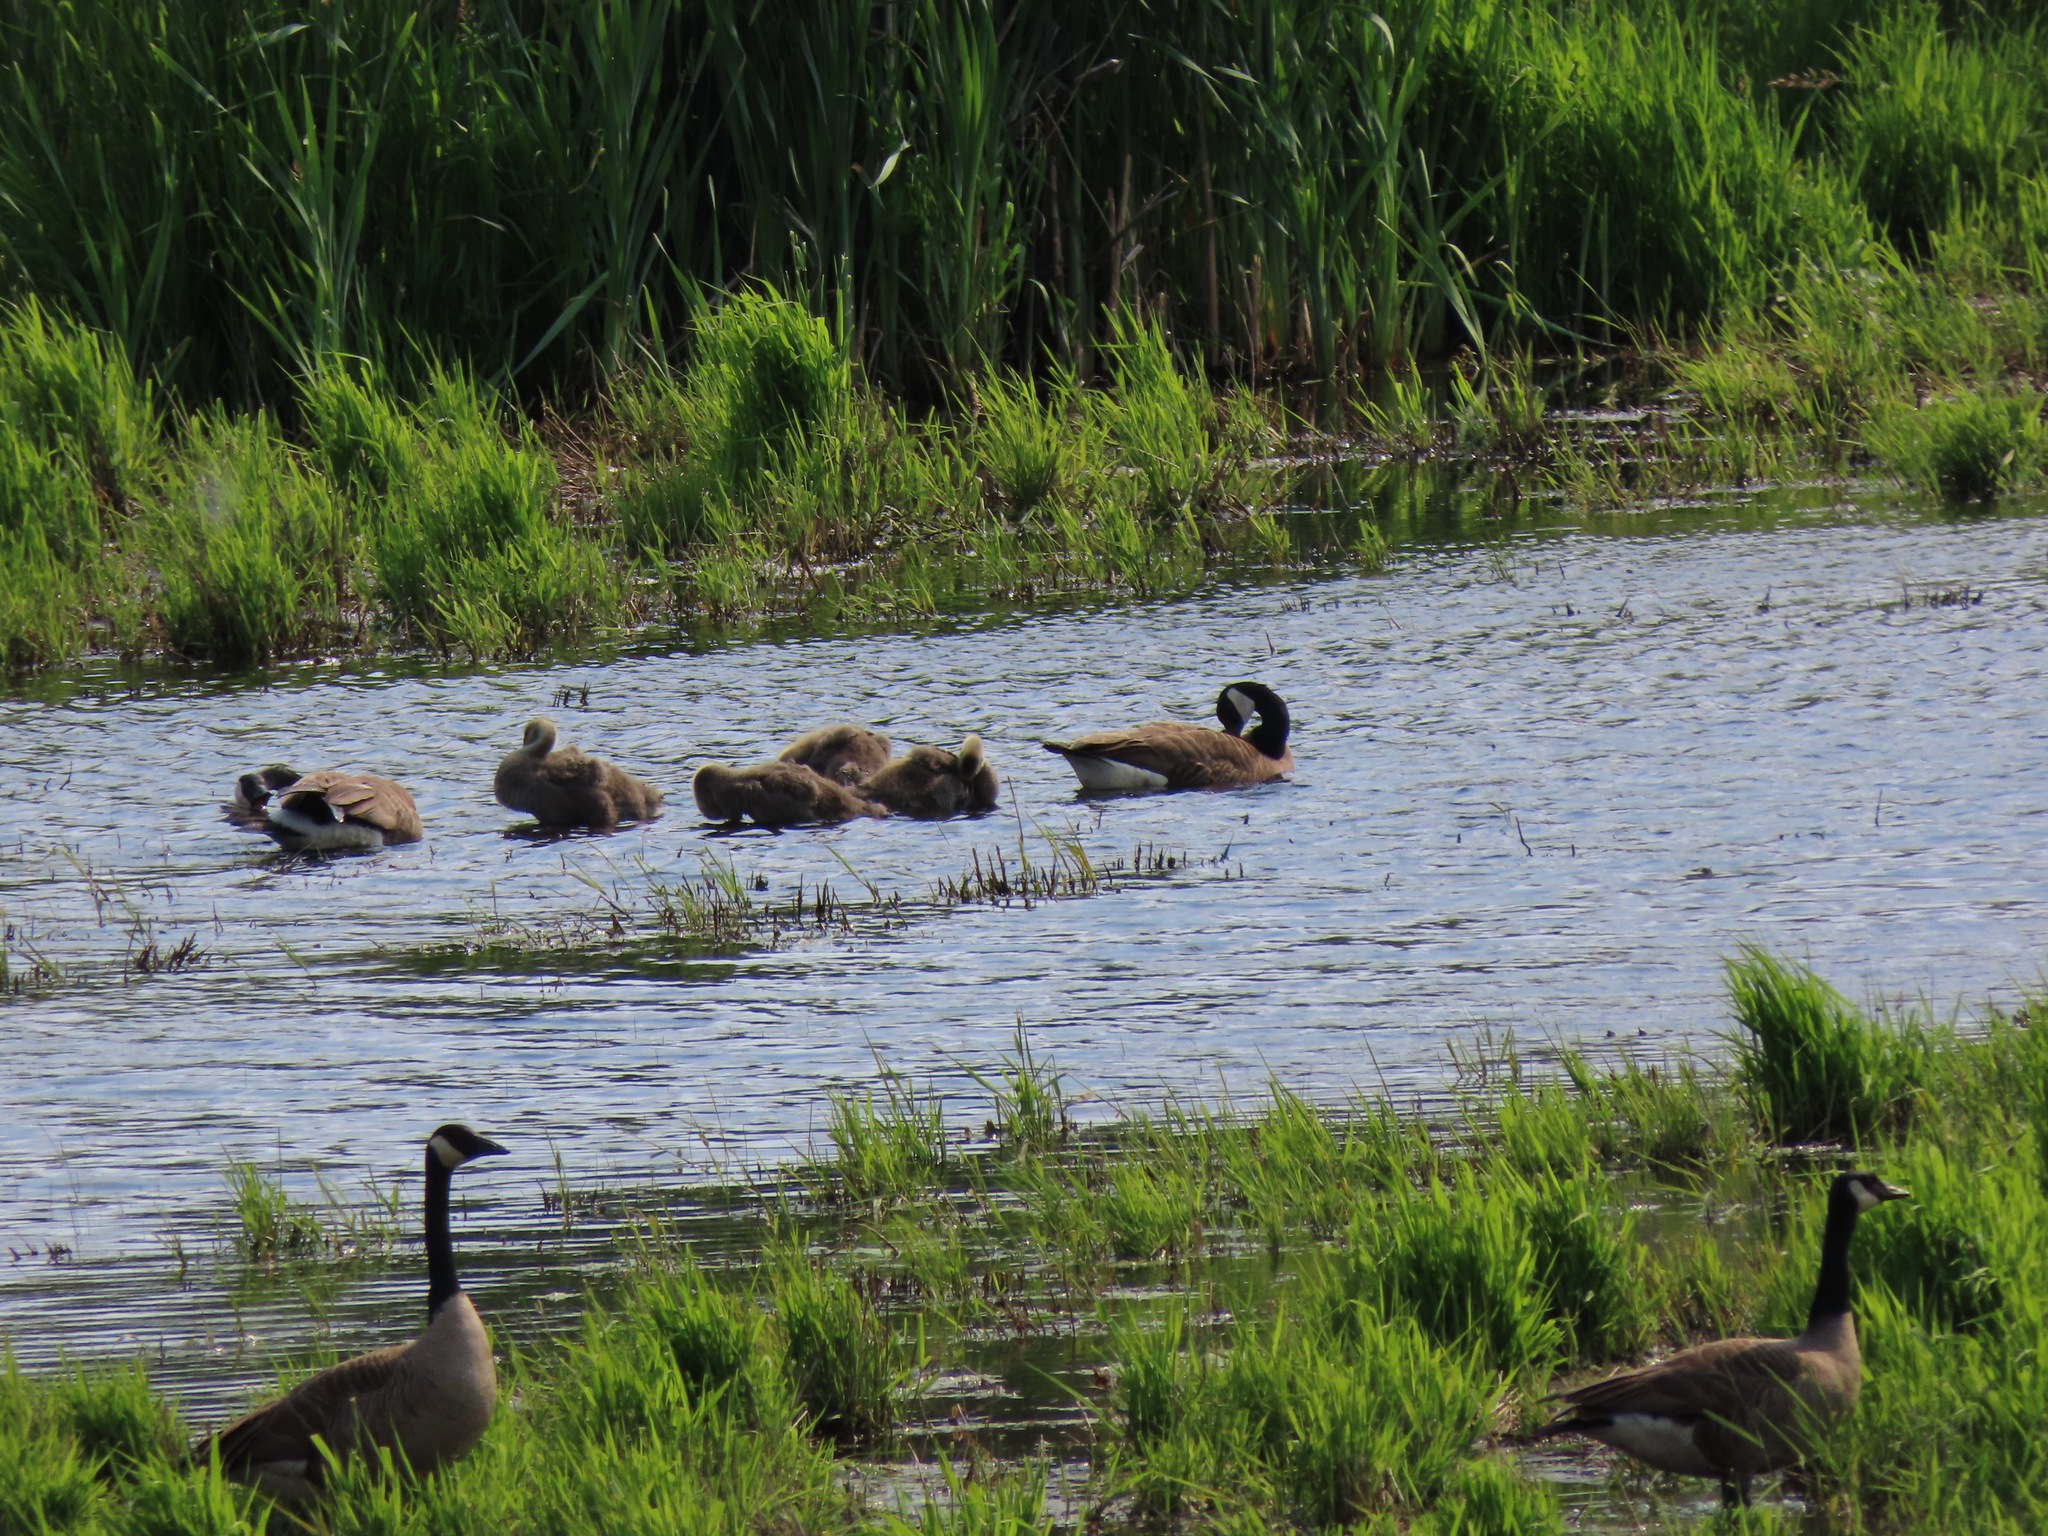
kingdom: Animalia
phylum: Chordata
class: Aves
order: Anseriformes
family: Anatidae
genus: Branta
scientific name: Branta canadensis
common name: Canada goose
